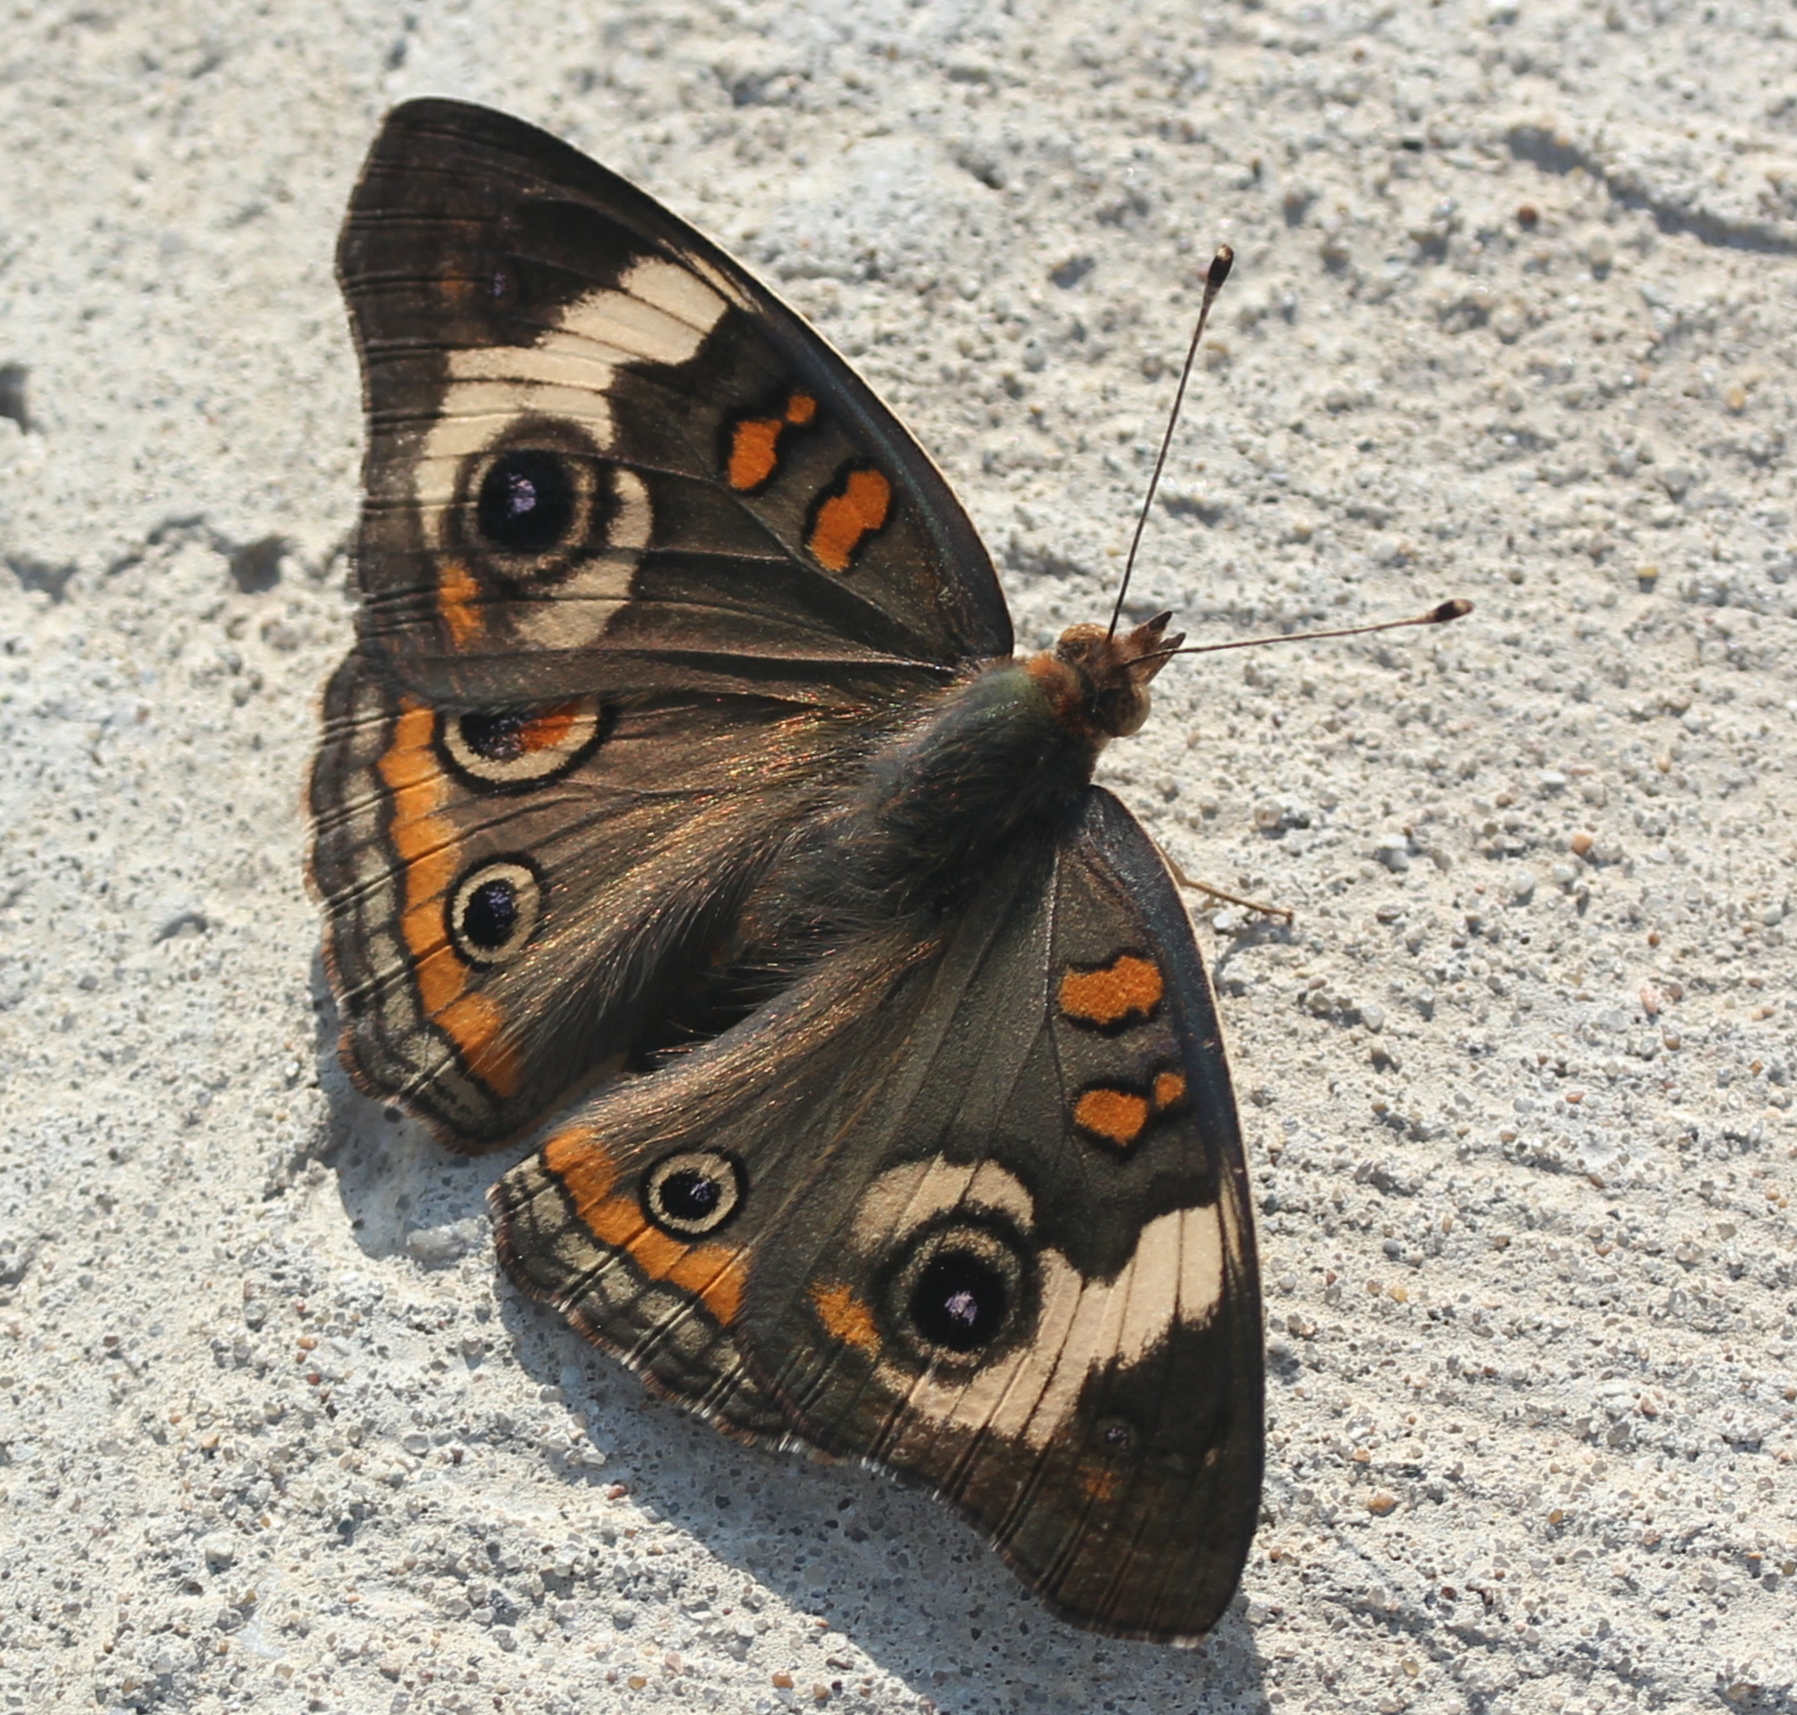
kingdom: Animalia
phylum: Arthropoda
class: Insecta
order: Lepidoptera
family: Nymphalidae
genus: Junonia
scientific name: Junonia coenia
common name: Common buckeye
